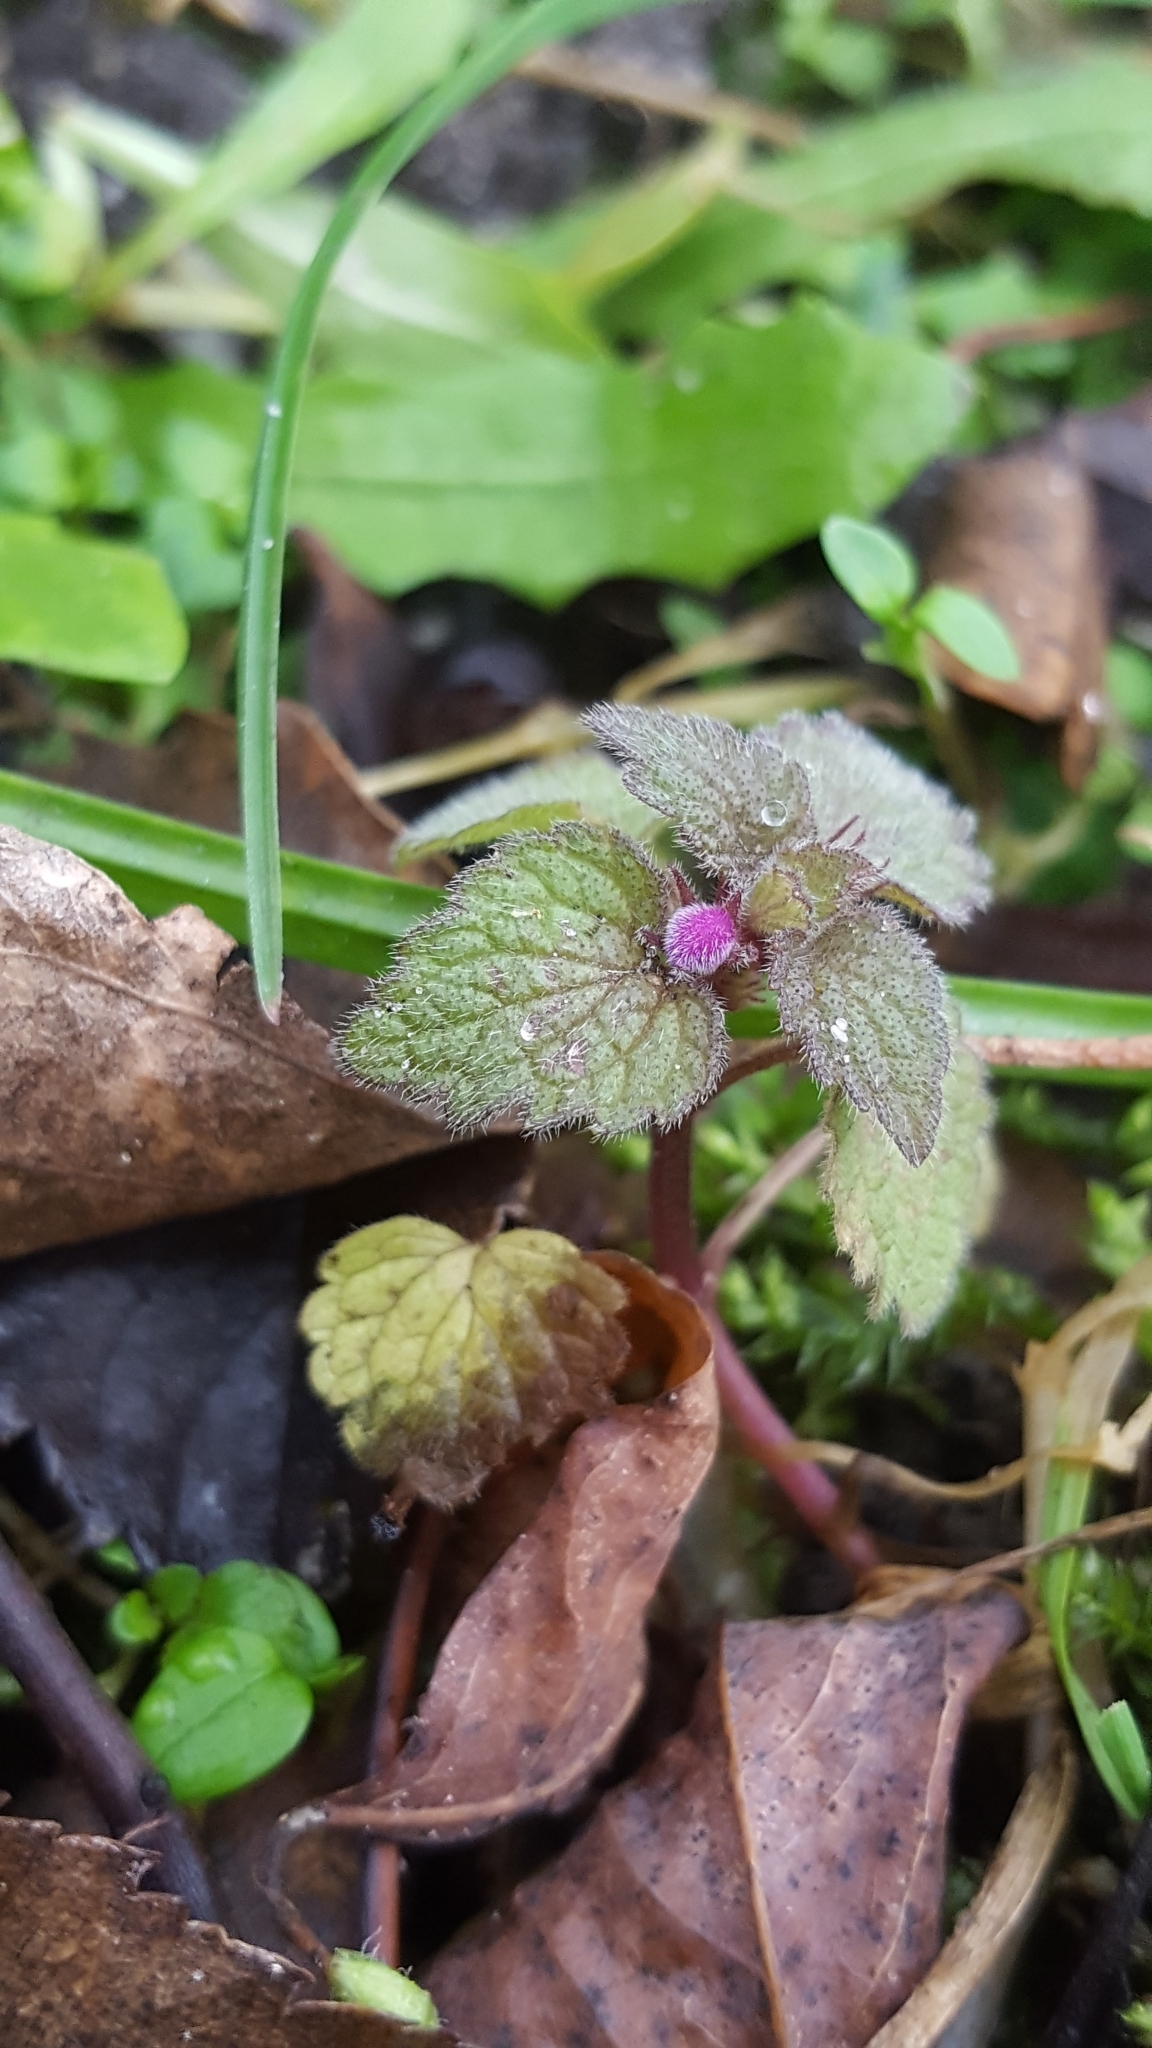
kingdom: Plantae
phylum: Tracheophyta
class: Magnoliopsida
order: Lamiales
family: Lamiaceae
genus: Lamium
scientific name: Lamium purpureum
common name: Red dead-nettle
